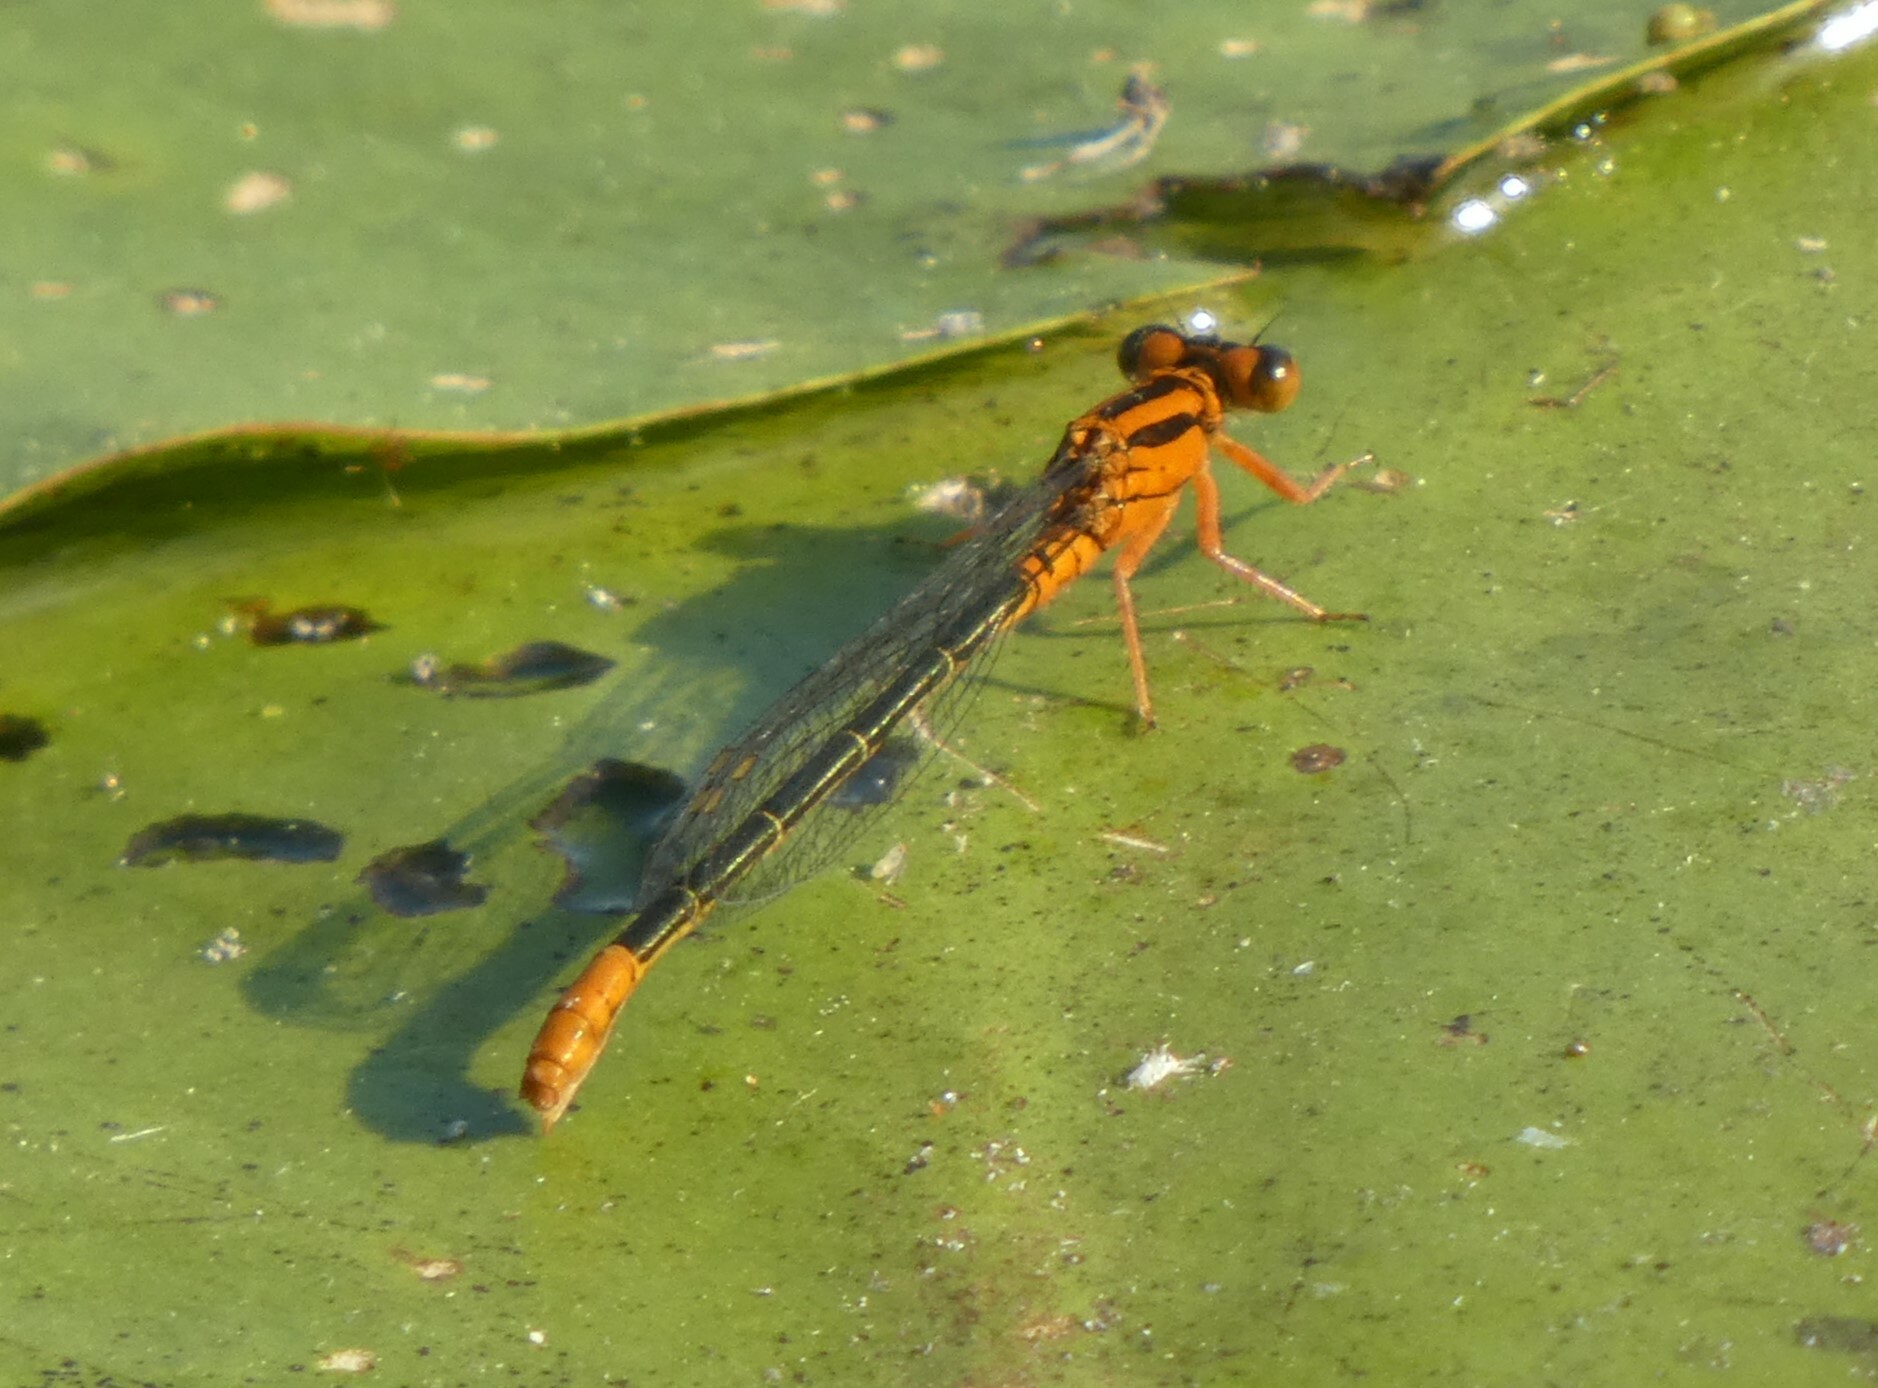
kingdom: Animalia
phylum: Arthropoda
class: Insecta
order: Odonata
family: Coenagrionidae
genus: Ischnura
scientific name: Ischnura kellicotti
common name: Lilypad forktail
